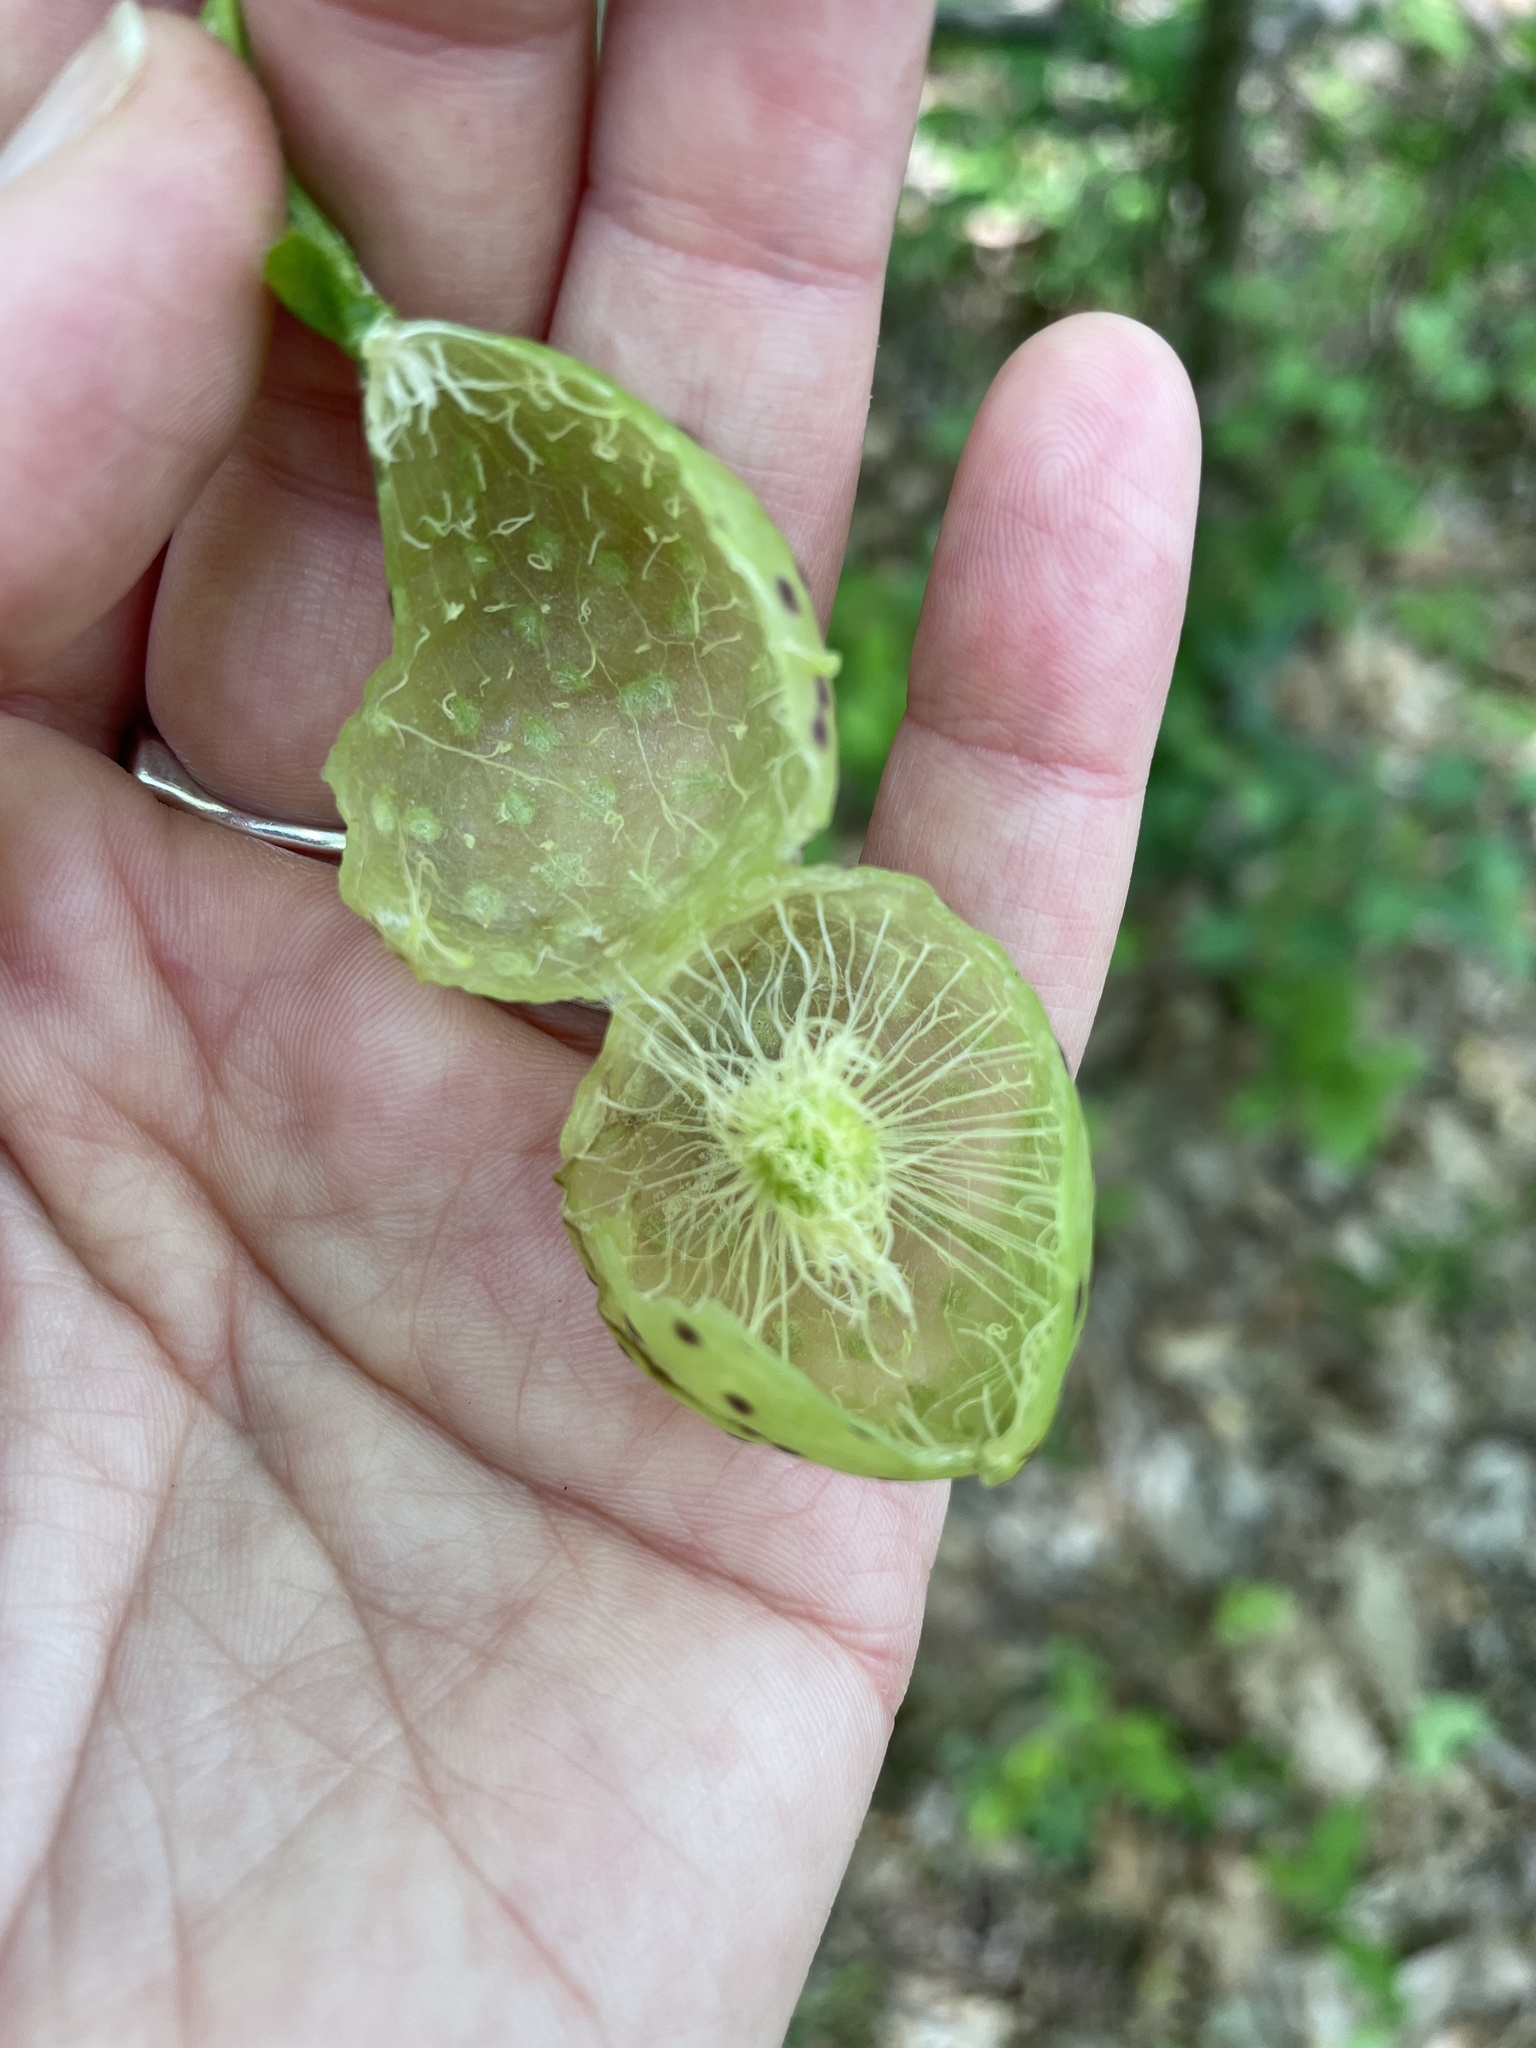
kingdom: Animalia
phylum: Arthropoda
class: Insecta
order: Hymenoptera
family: Cynipidae
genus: Amphibolips
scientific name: Amphibolips
